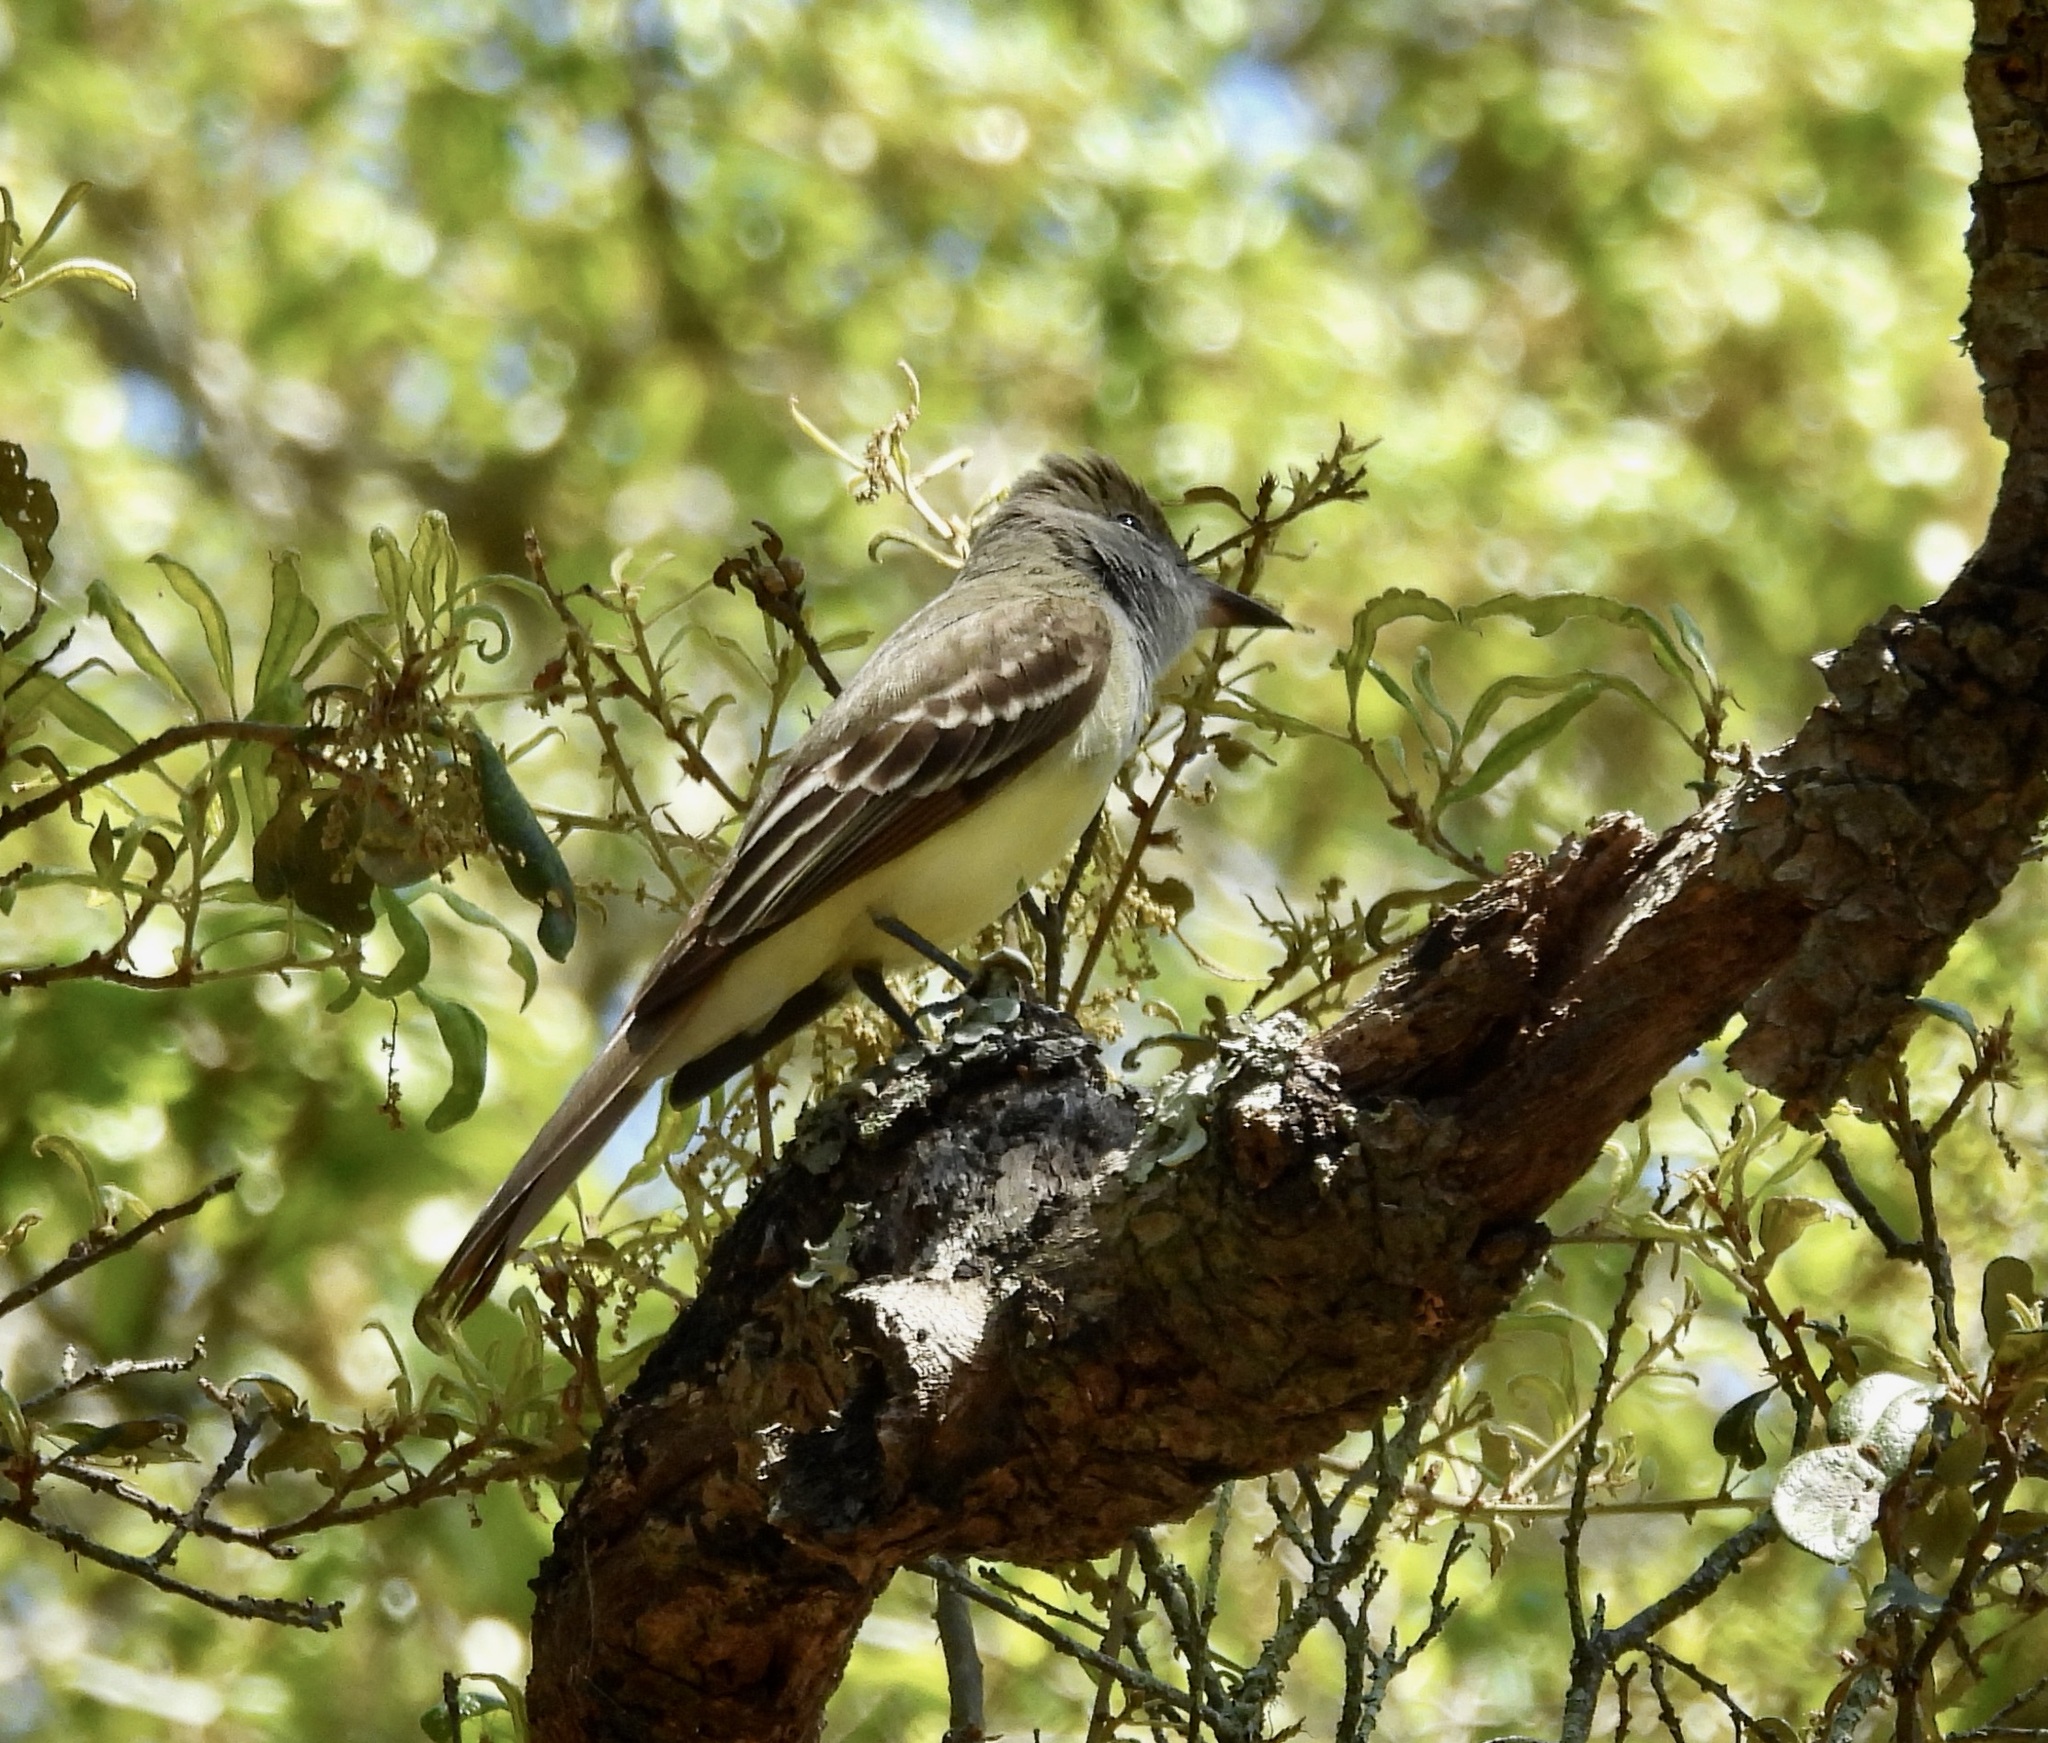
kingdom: Animalia
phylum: Chordata
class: Aves
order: Passeriformes
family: Tyrannidae
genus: Myiarchus
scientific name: Myiarchus crinitus
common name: Great crested flycatcher
